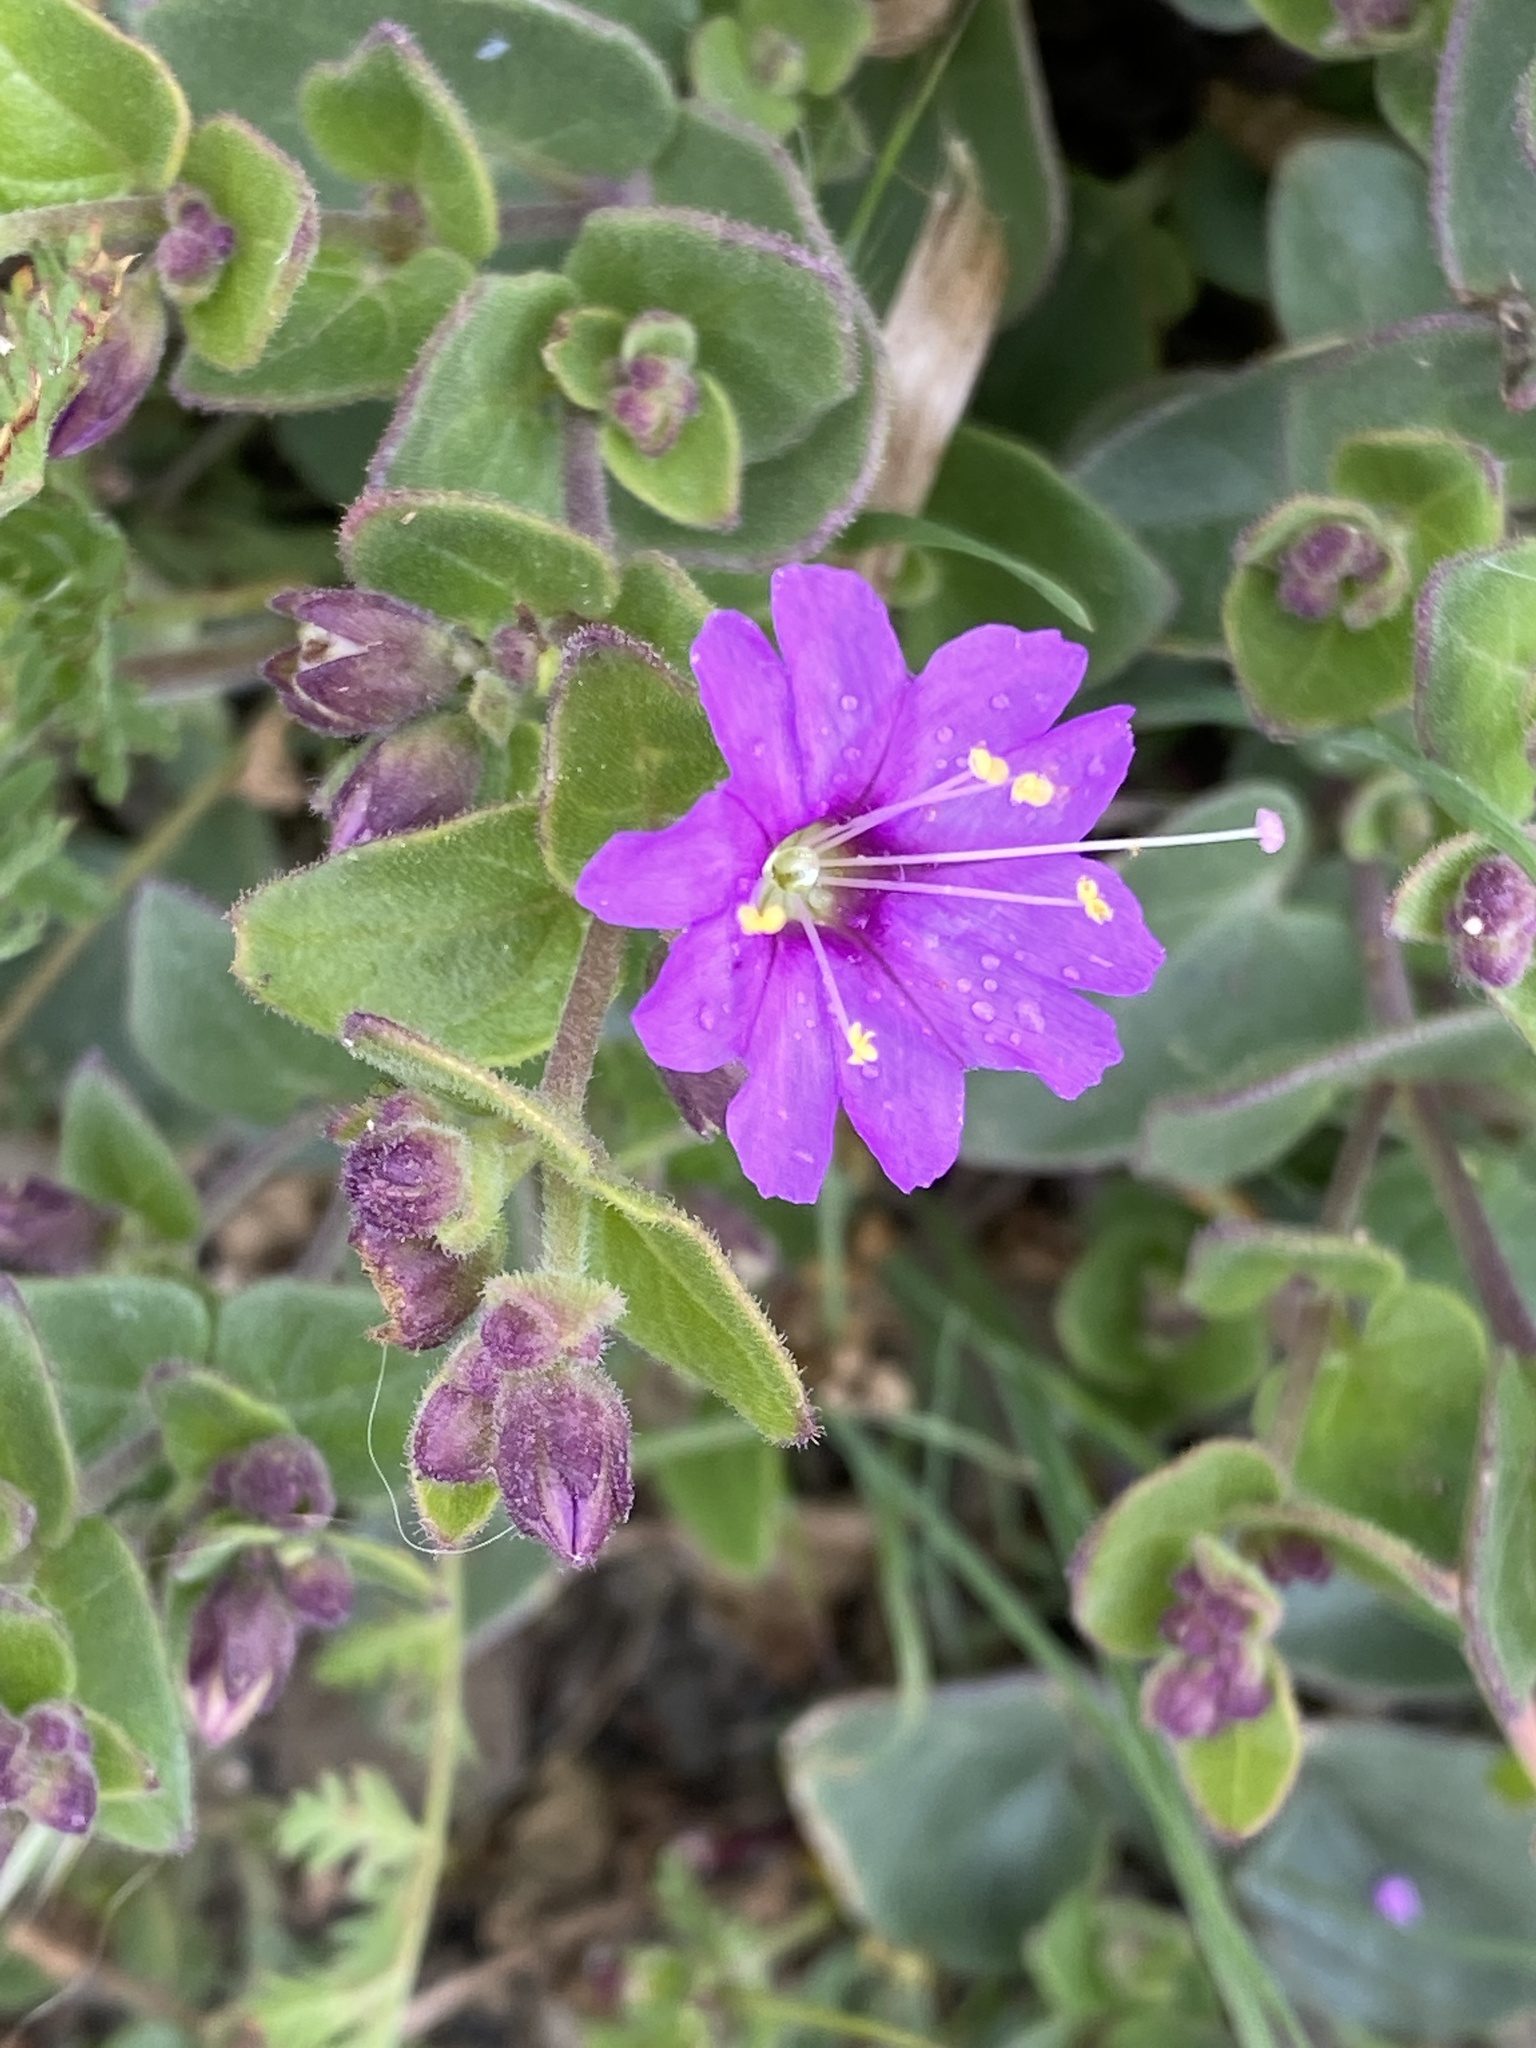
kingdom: Plantae
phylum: Tracheophyta
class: Magnoliopsida
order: Caryophyllales
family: Nyctaginaceae
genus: Mirabilis
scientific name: Mirabilis laevis
